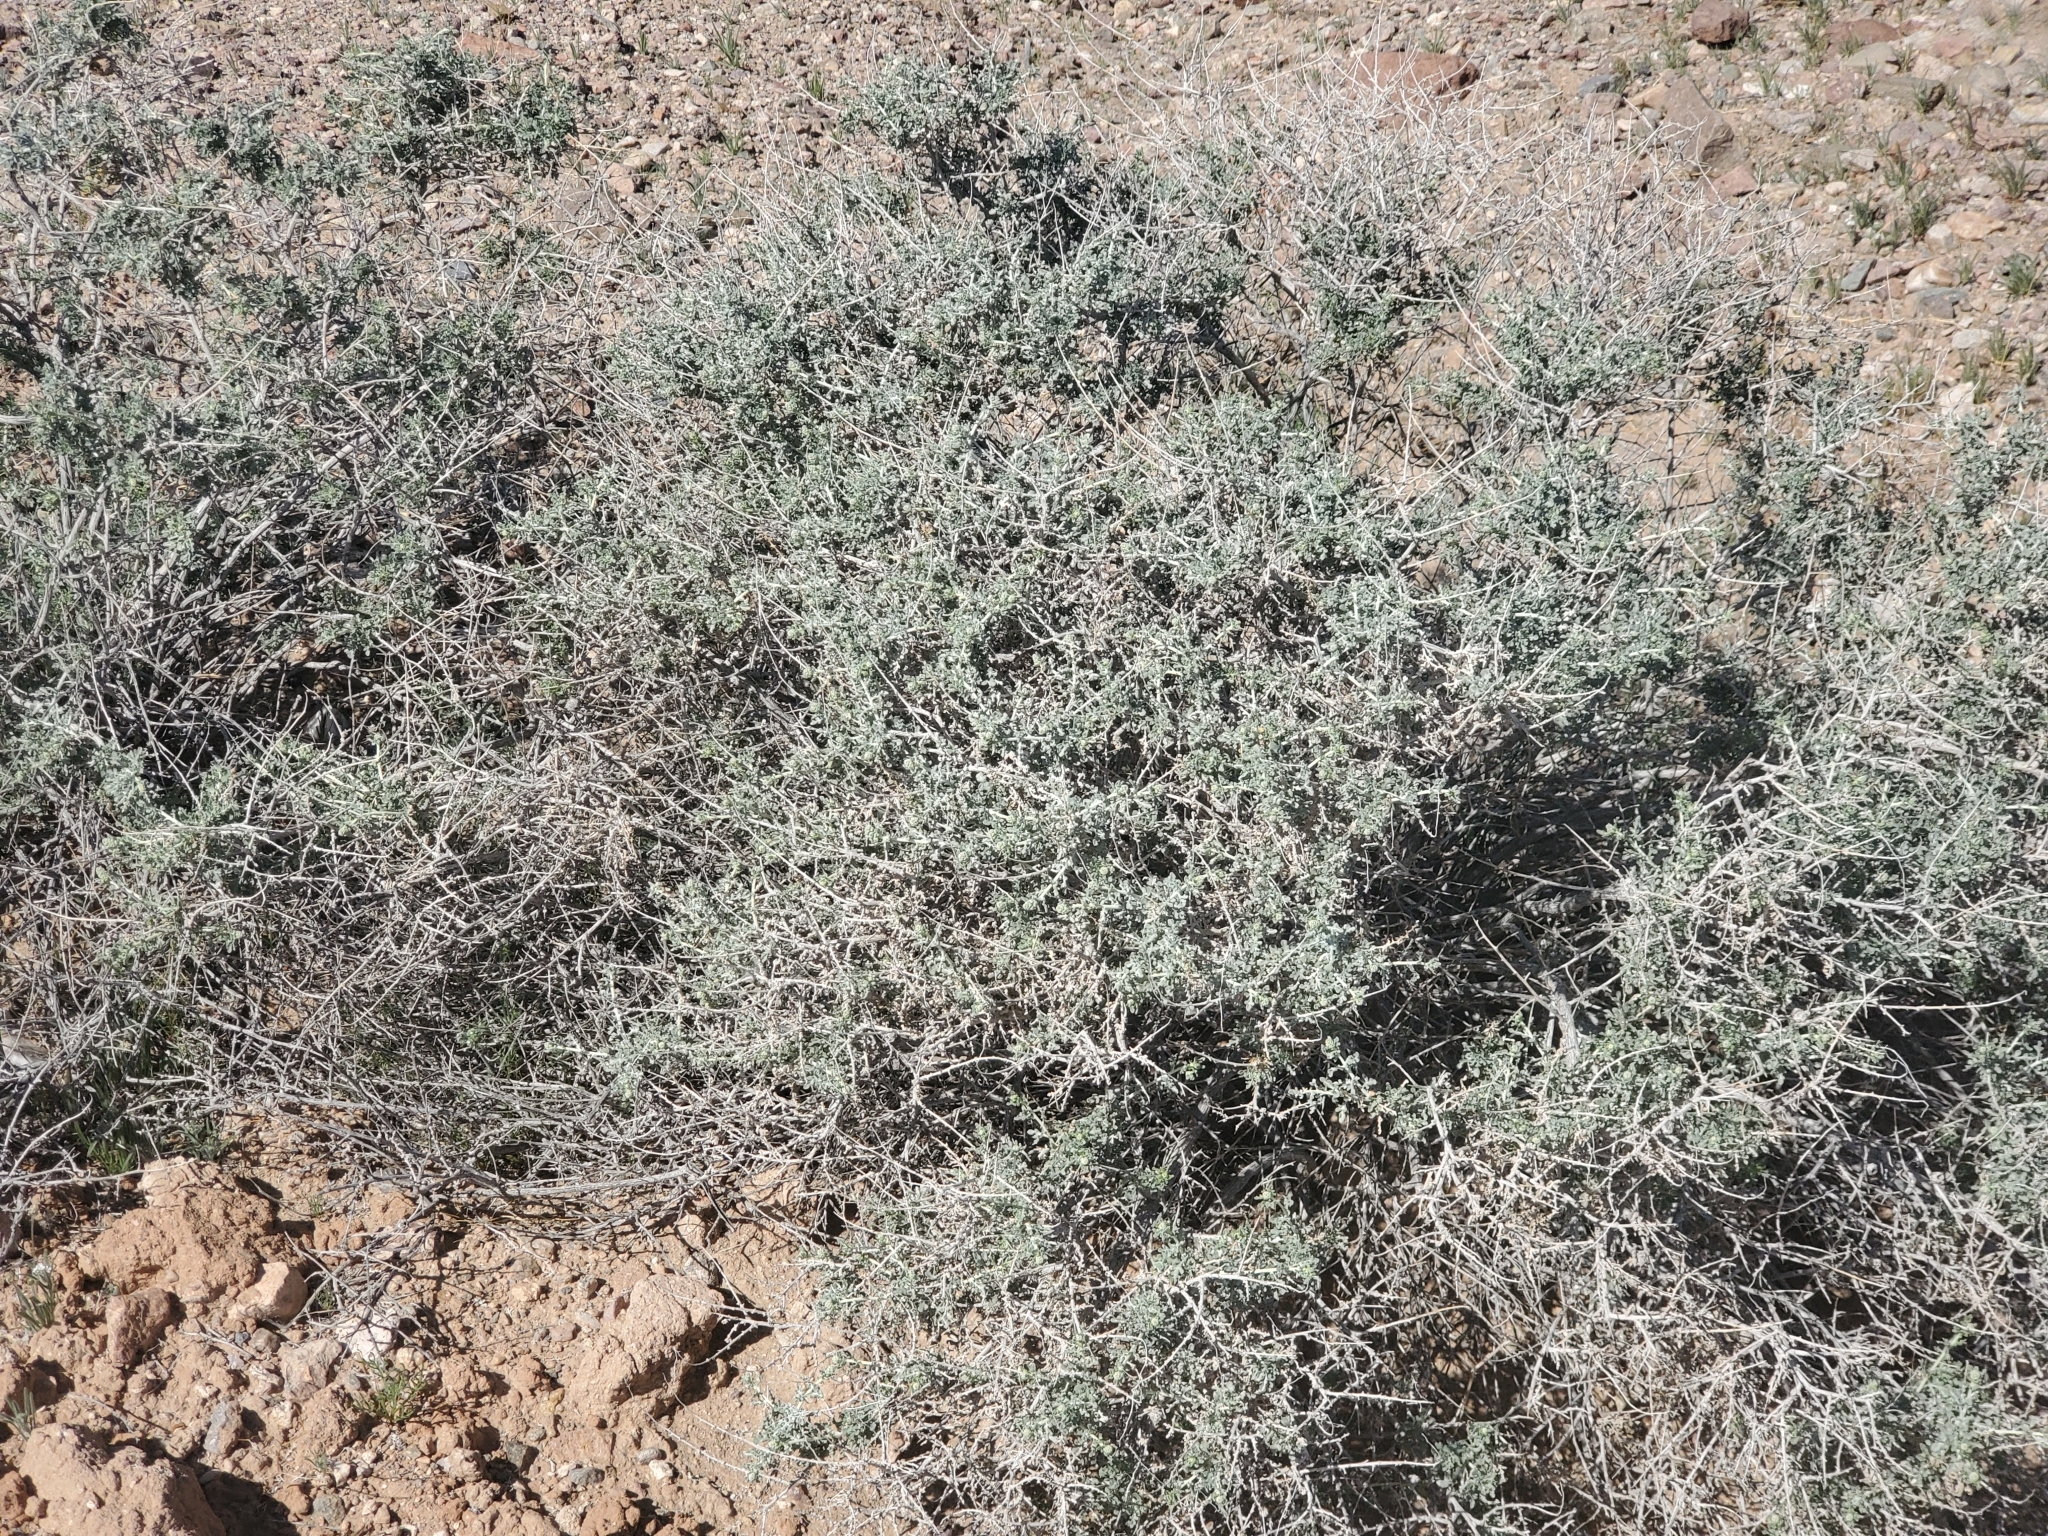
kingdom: Plantae
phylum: Tracheophyta
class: Magnoliopsida
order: Asterales
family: Asteraceae
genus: Ambrosia
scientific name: Ambrosia dumosa
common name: Bur-sage
